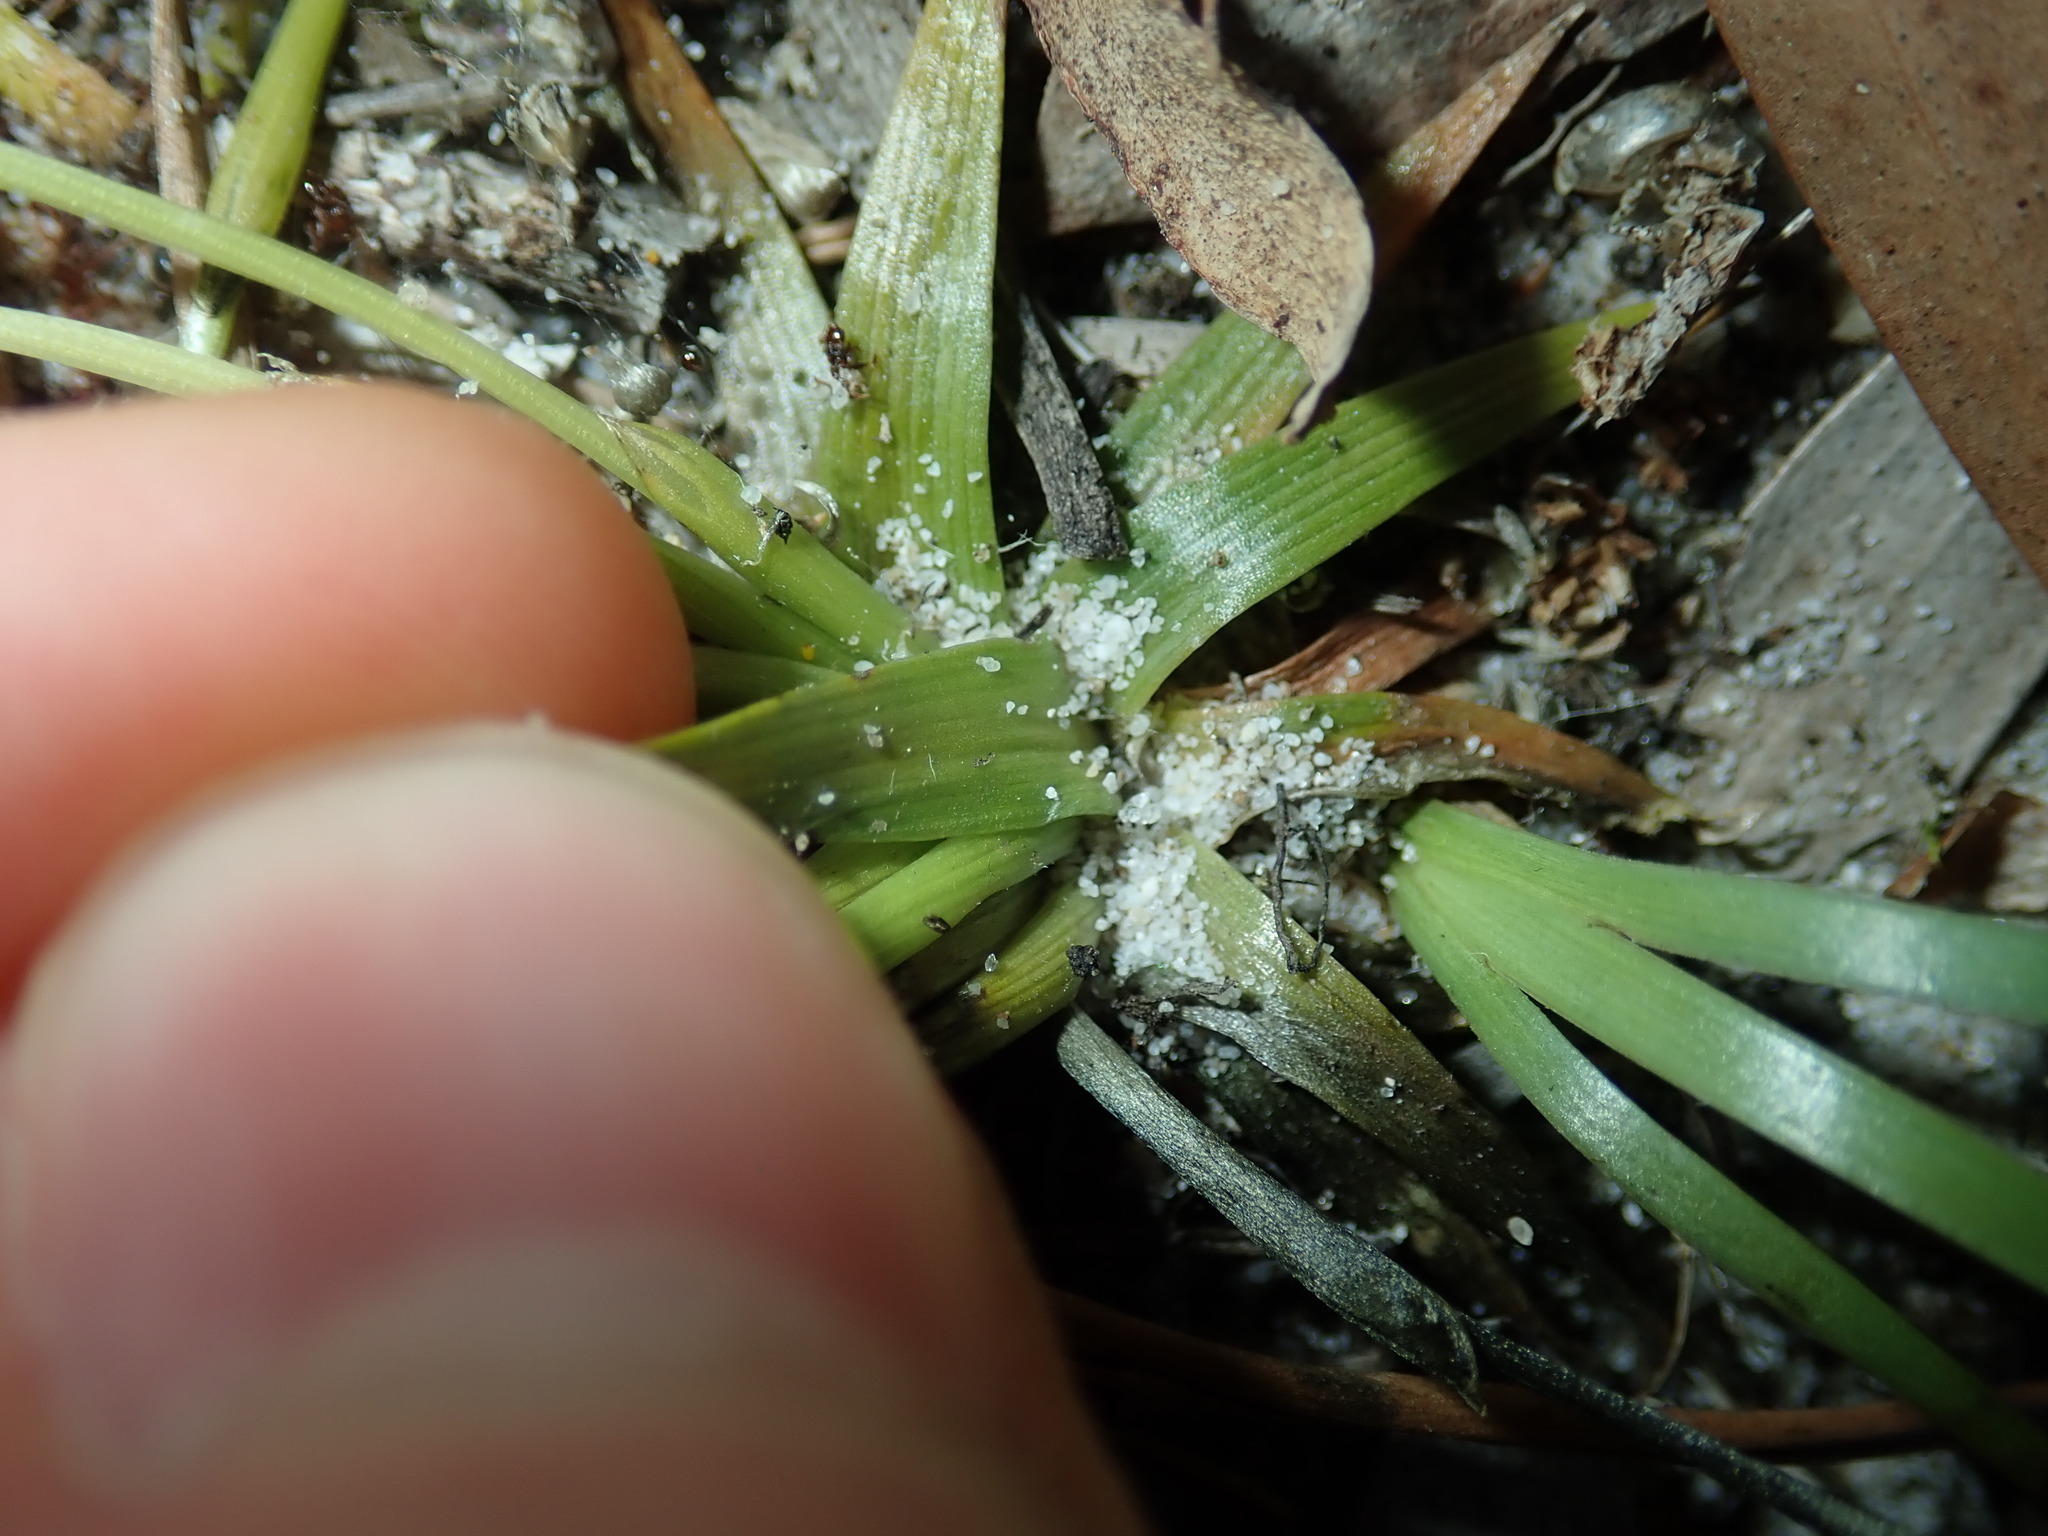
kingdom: Plantae
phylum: Tracheophyta
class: Liliopsida
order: Poales
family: Eriocaulaceae
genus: Eriocaulon
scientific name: Eriocaulon scariosum
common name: Rough pipewort
